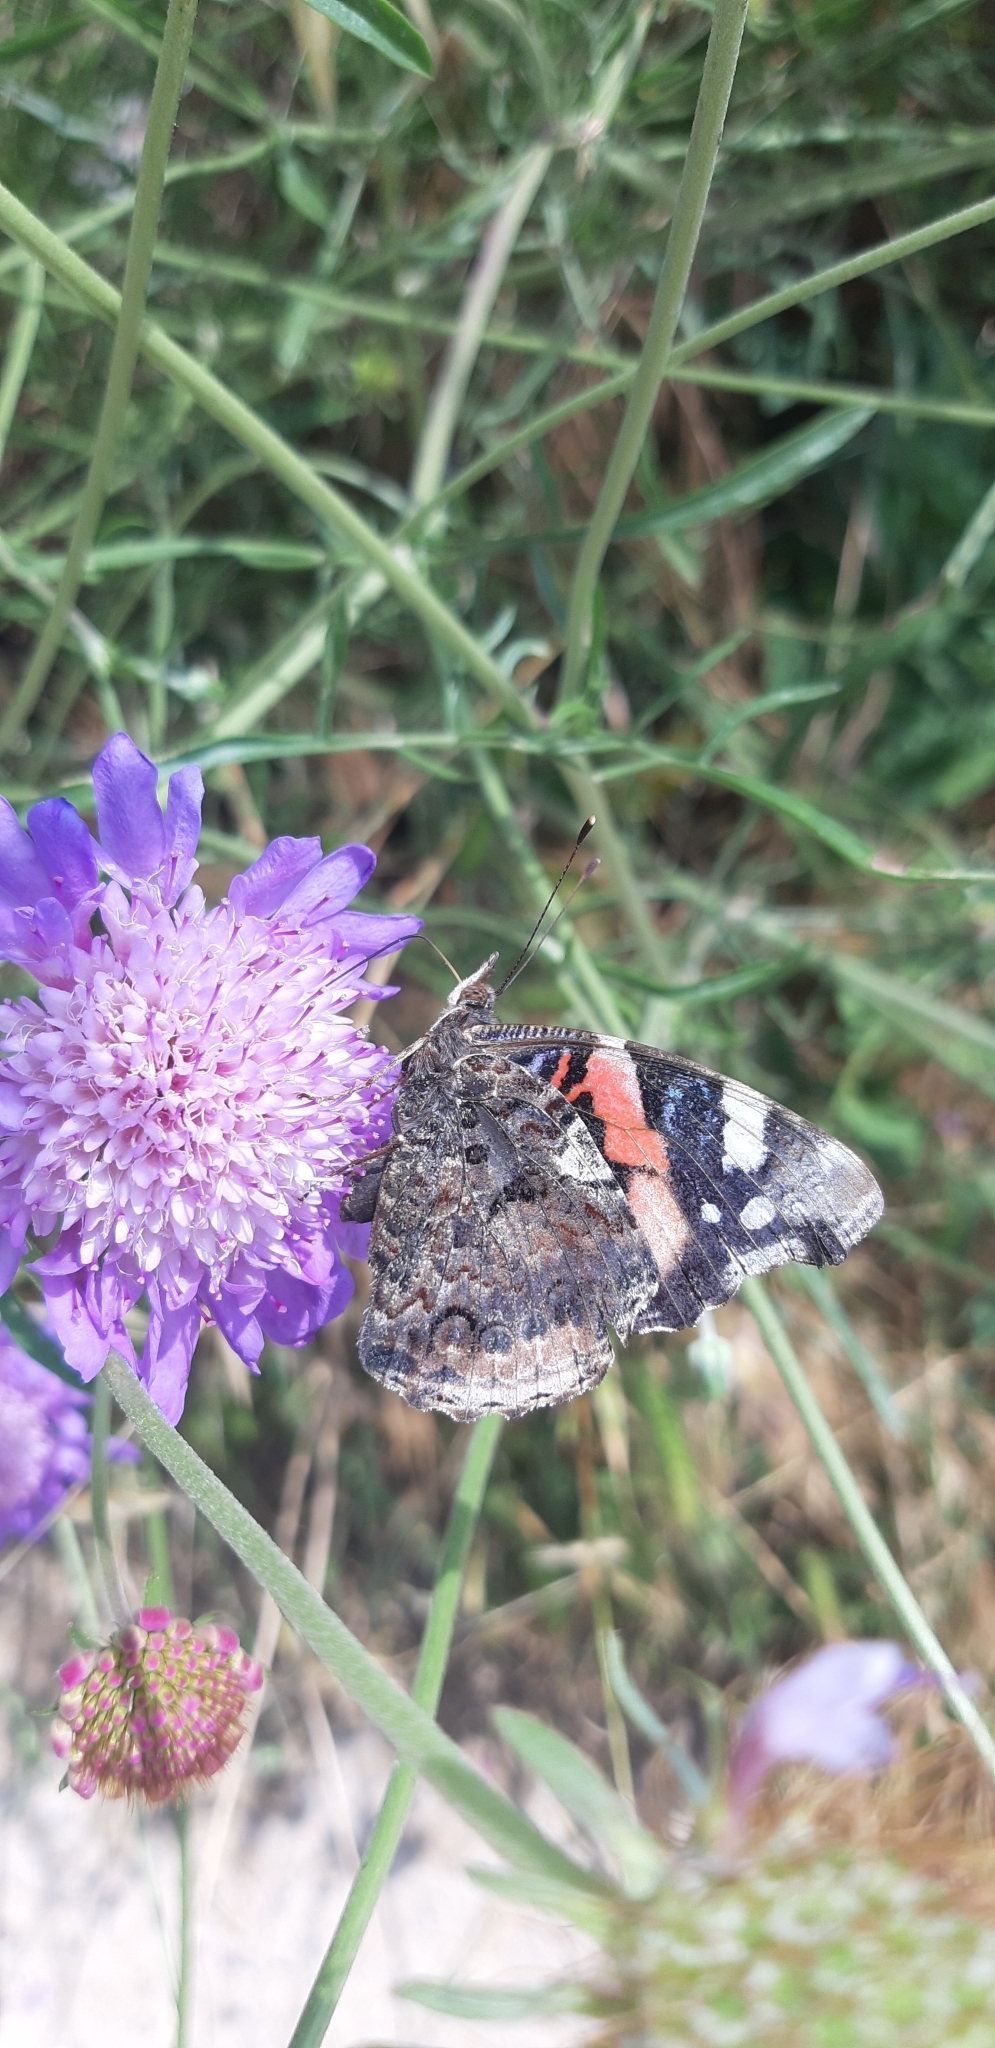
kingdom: Animalia
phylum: Arthropoda
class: Insecta
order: Lepidoptera
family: Nymphalidae
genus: Vanessa
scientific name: Vanessa atalanta
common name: Red admiral
